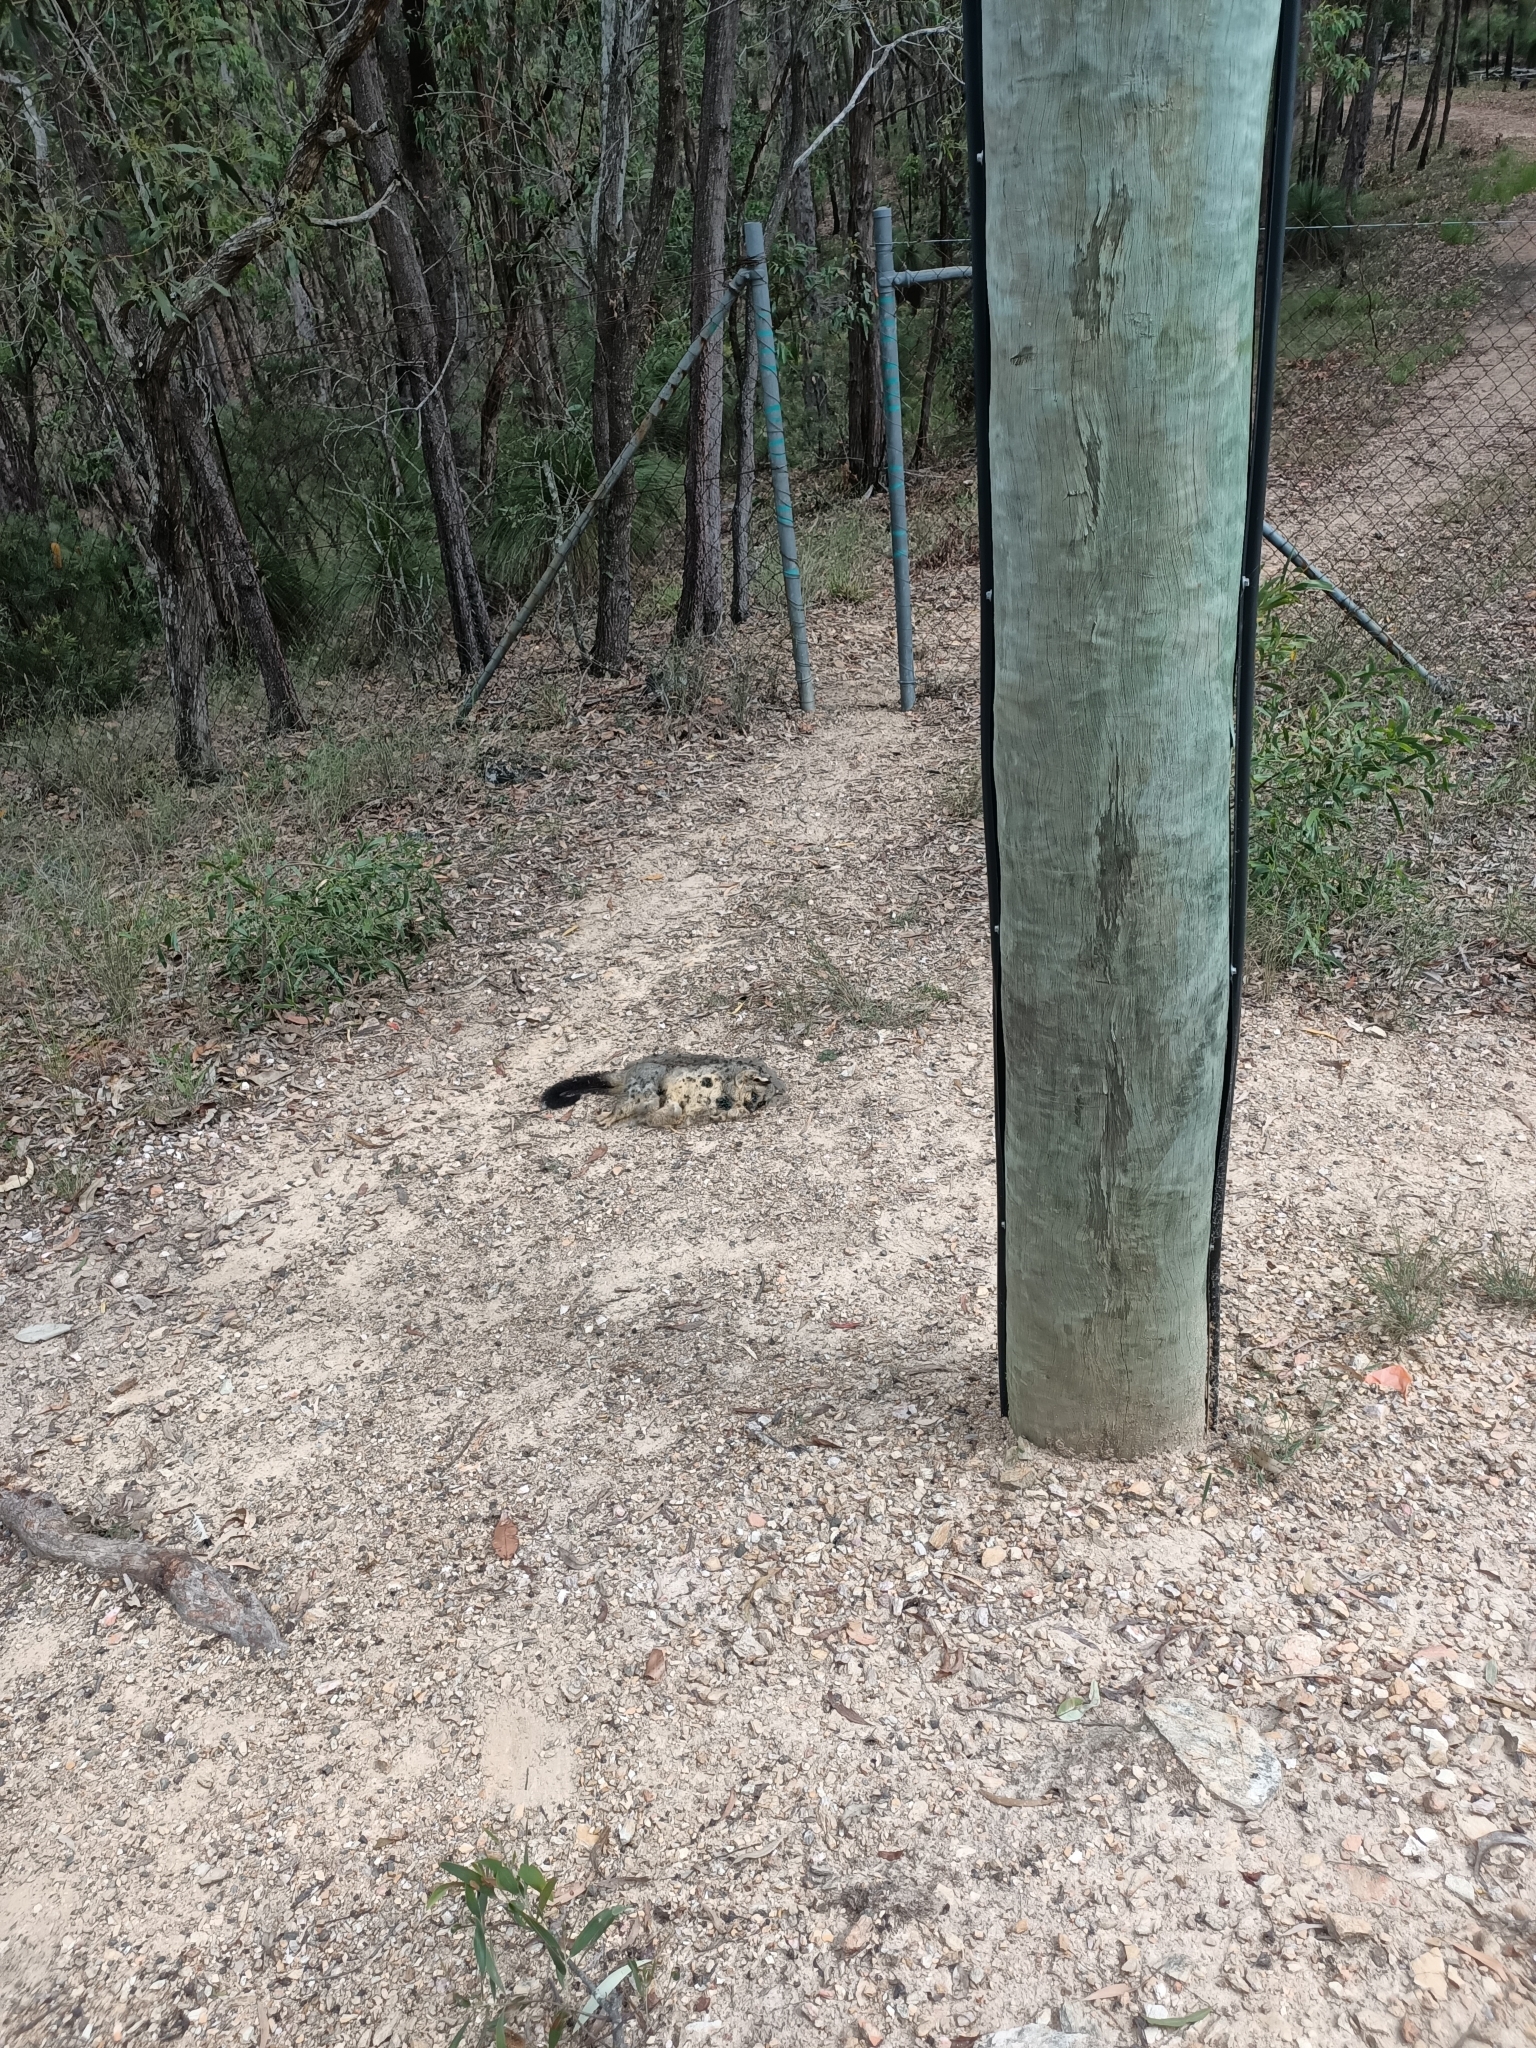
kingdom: Animalia
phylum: Chordata
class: Mammalia
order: Diprotodontia
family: Phalangeridae
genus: Trichosurus
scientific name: Trichosurus vulpecula
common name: Common brushtail
